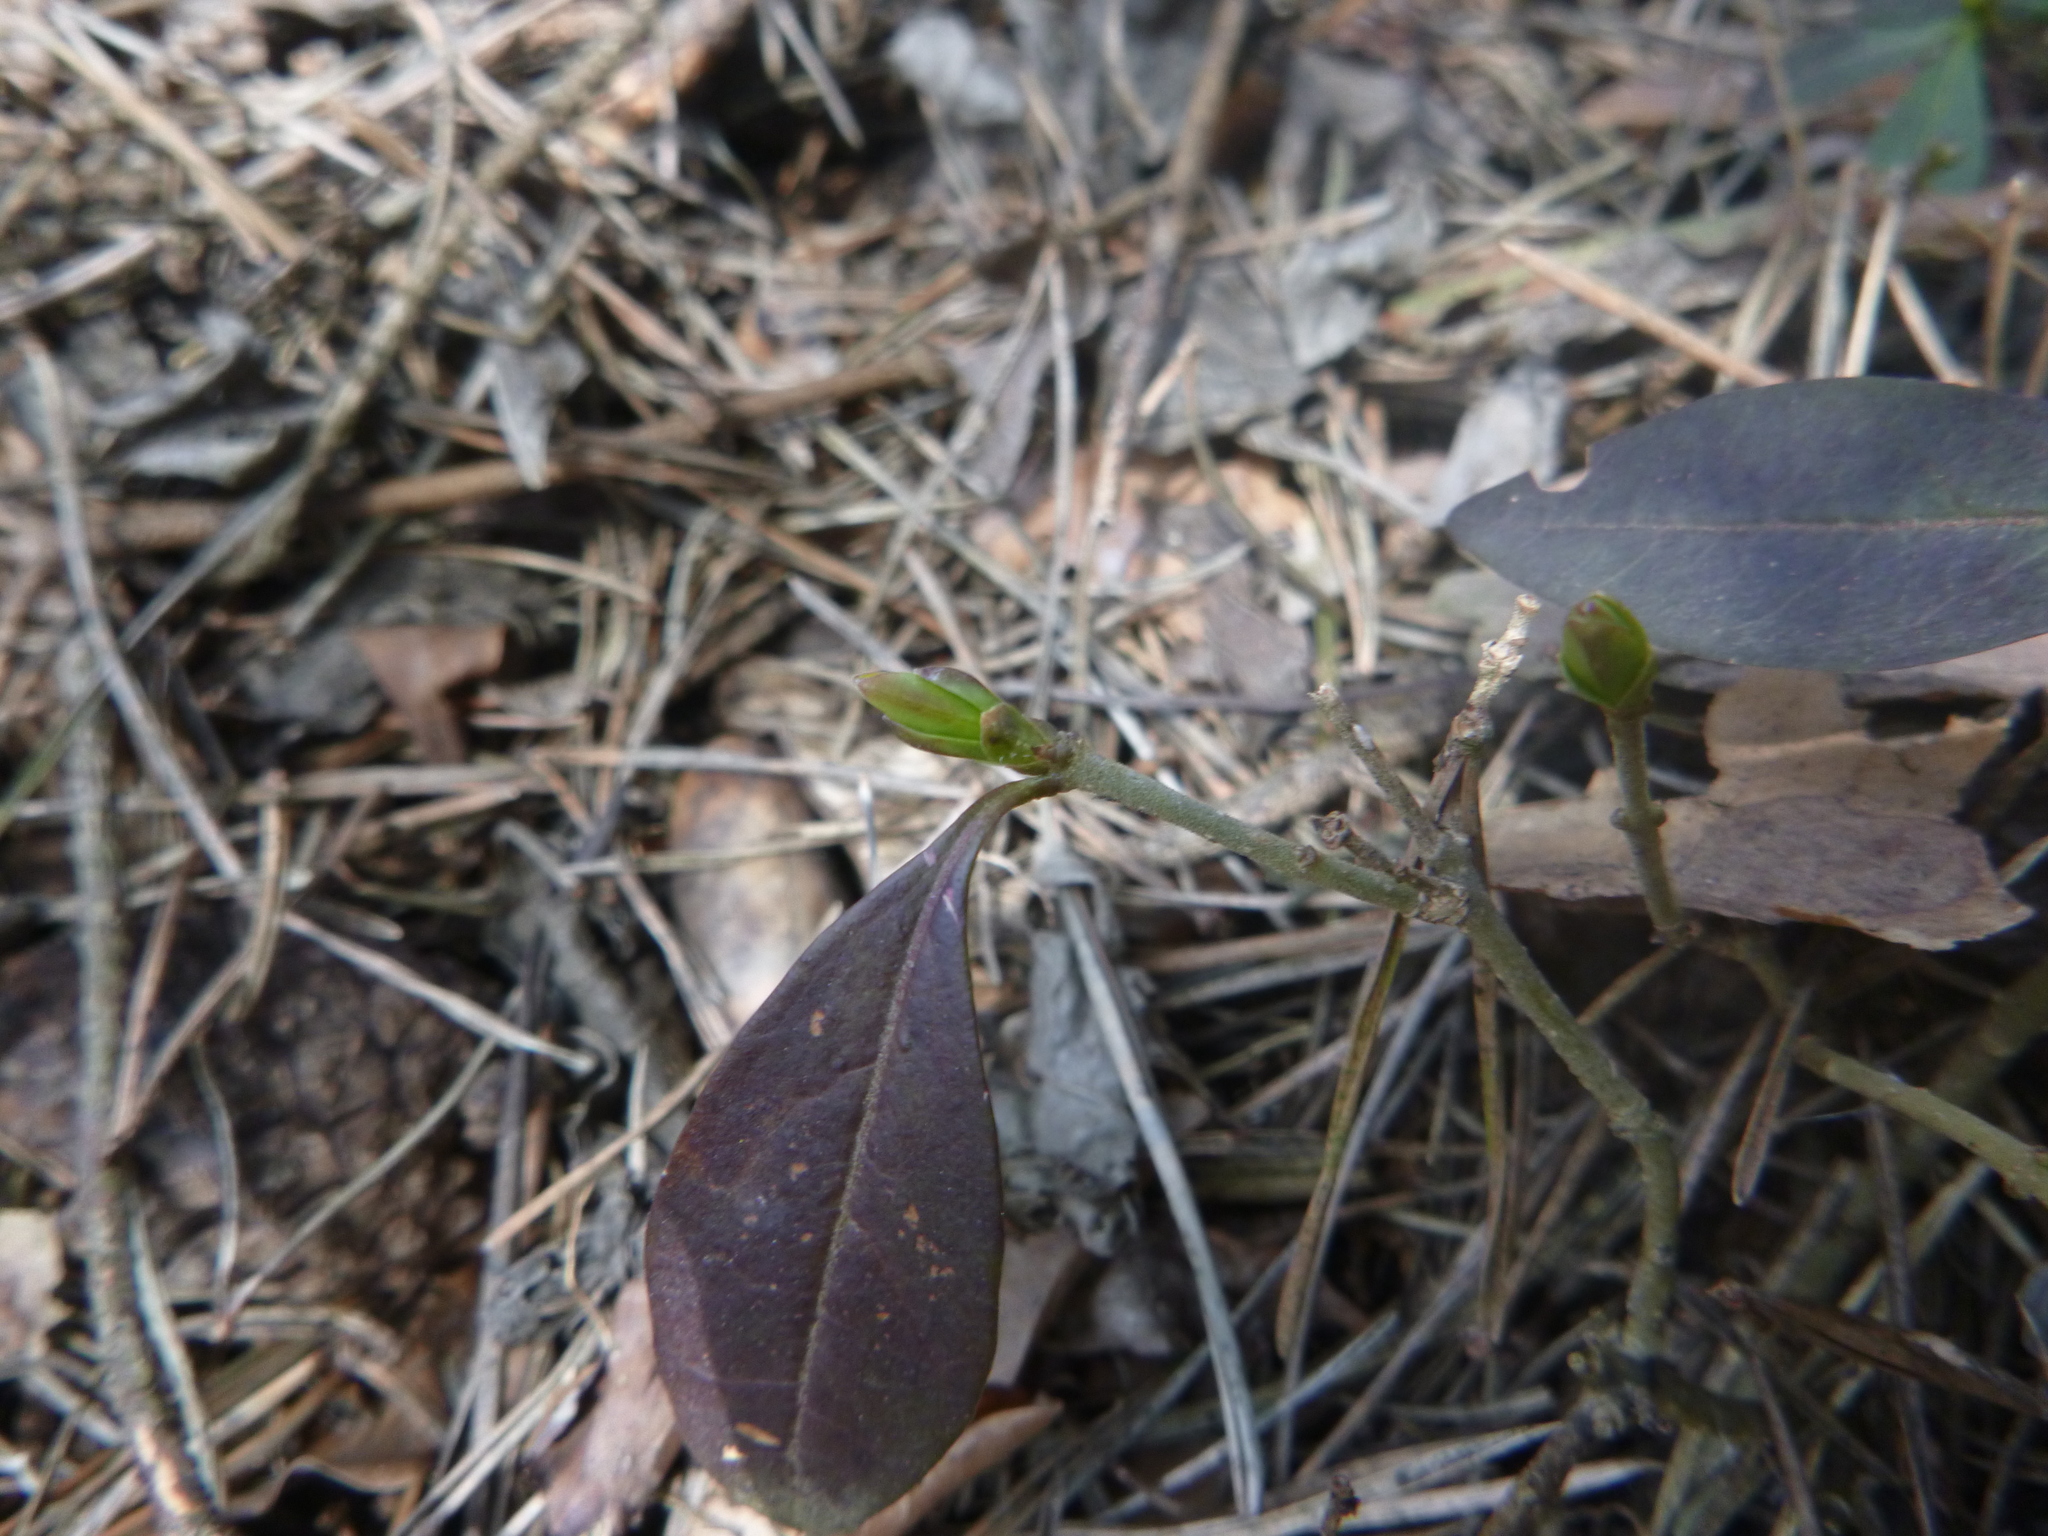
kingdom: Plantae
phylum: Tracheophyta
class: Magnoliopsida
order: Lamiales
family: Oleaceae
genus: Ligustrum
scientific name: Ligustrum vulgare
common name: Wild privet
